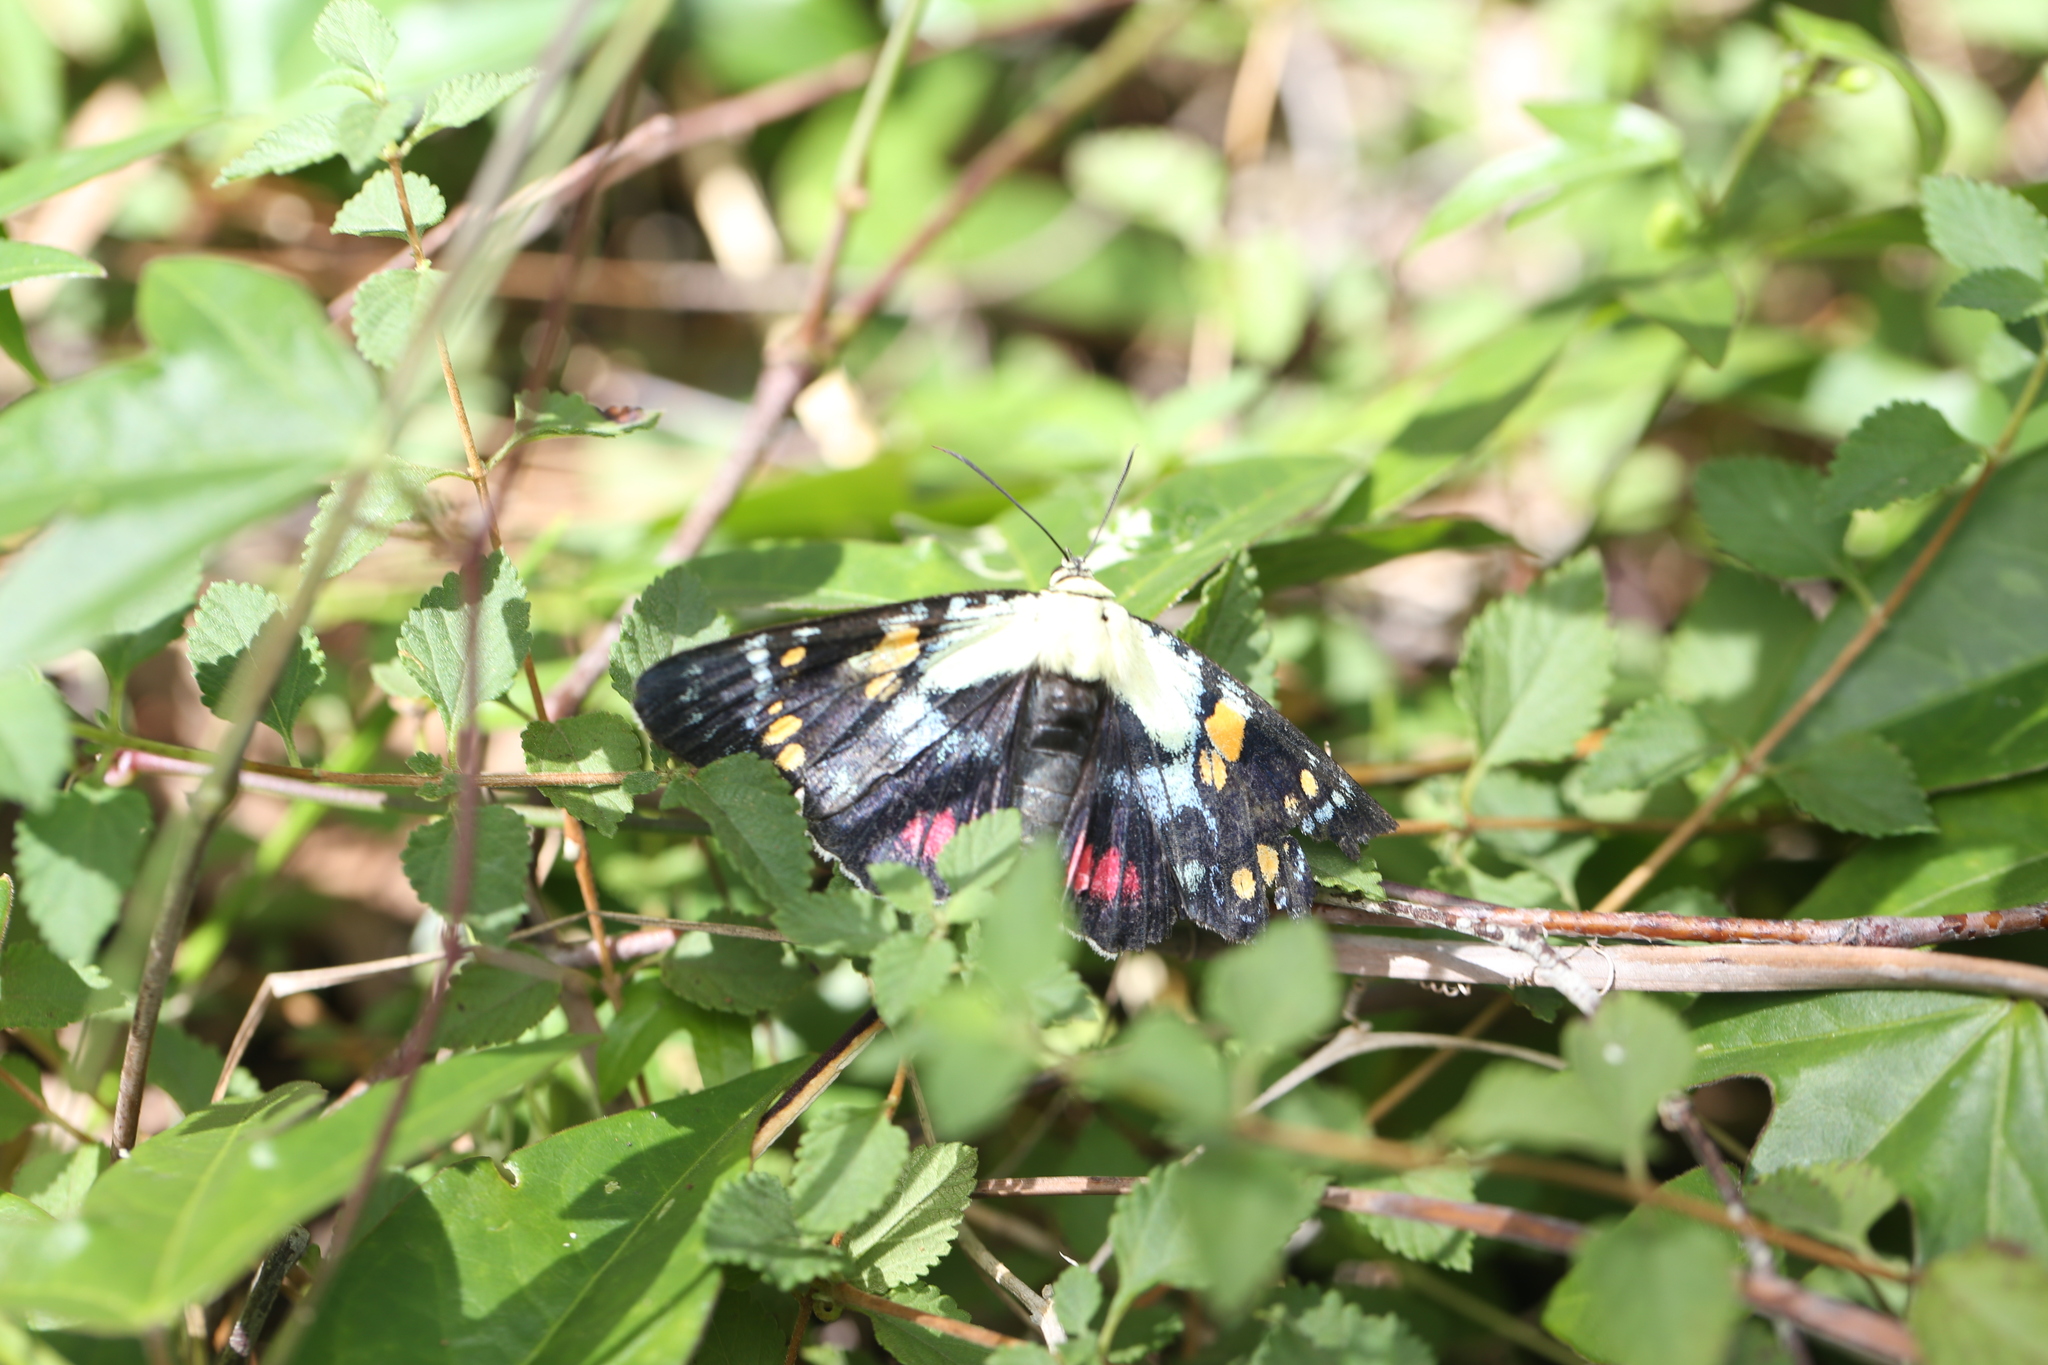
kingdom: Animalia
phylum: Arthropoda
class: Insecta
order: Lepidoptera
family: Noctuidae
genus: Agarista
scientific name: Agarista agricola
